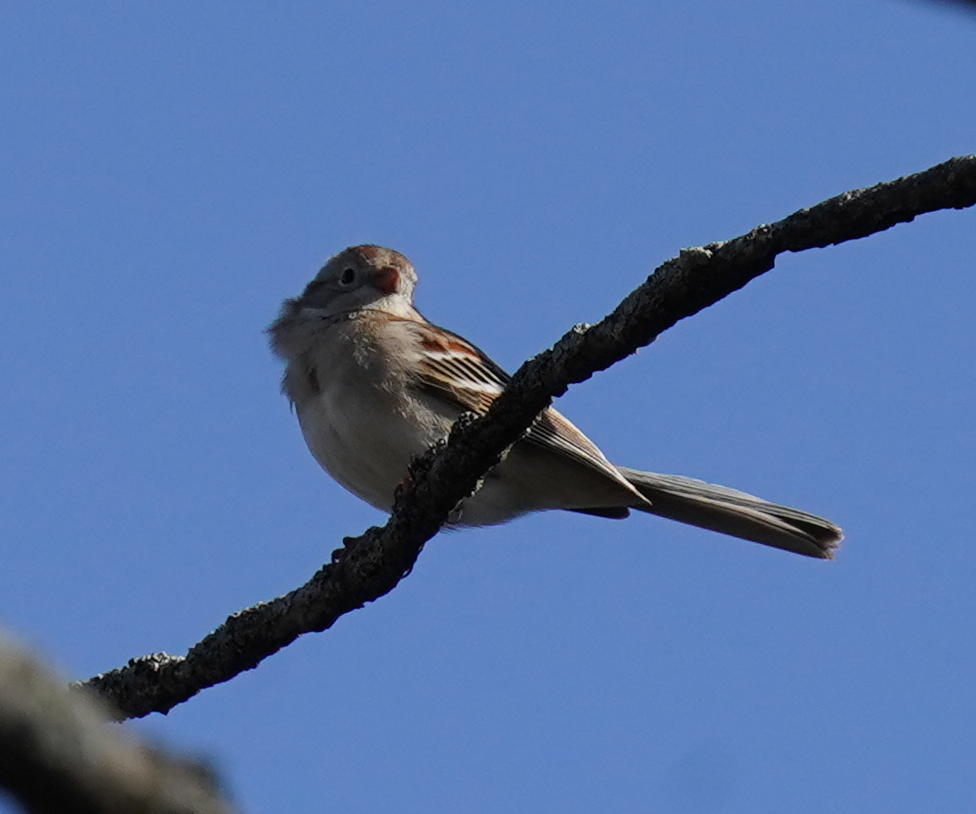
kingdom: Animalia
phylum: Chordata
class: Aves
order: Passeriformes
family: Passerellidae
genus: Spizella
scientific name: Spizella pusilla
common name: Field sparrow
